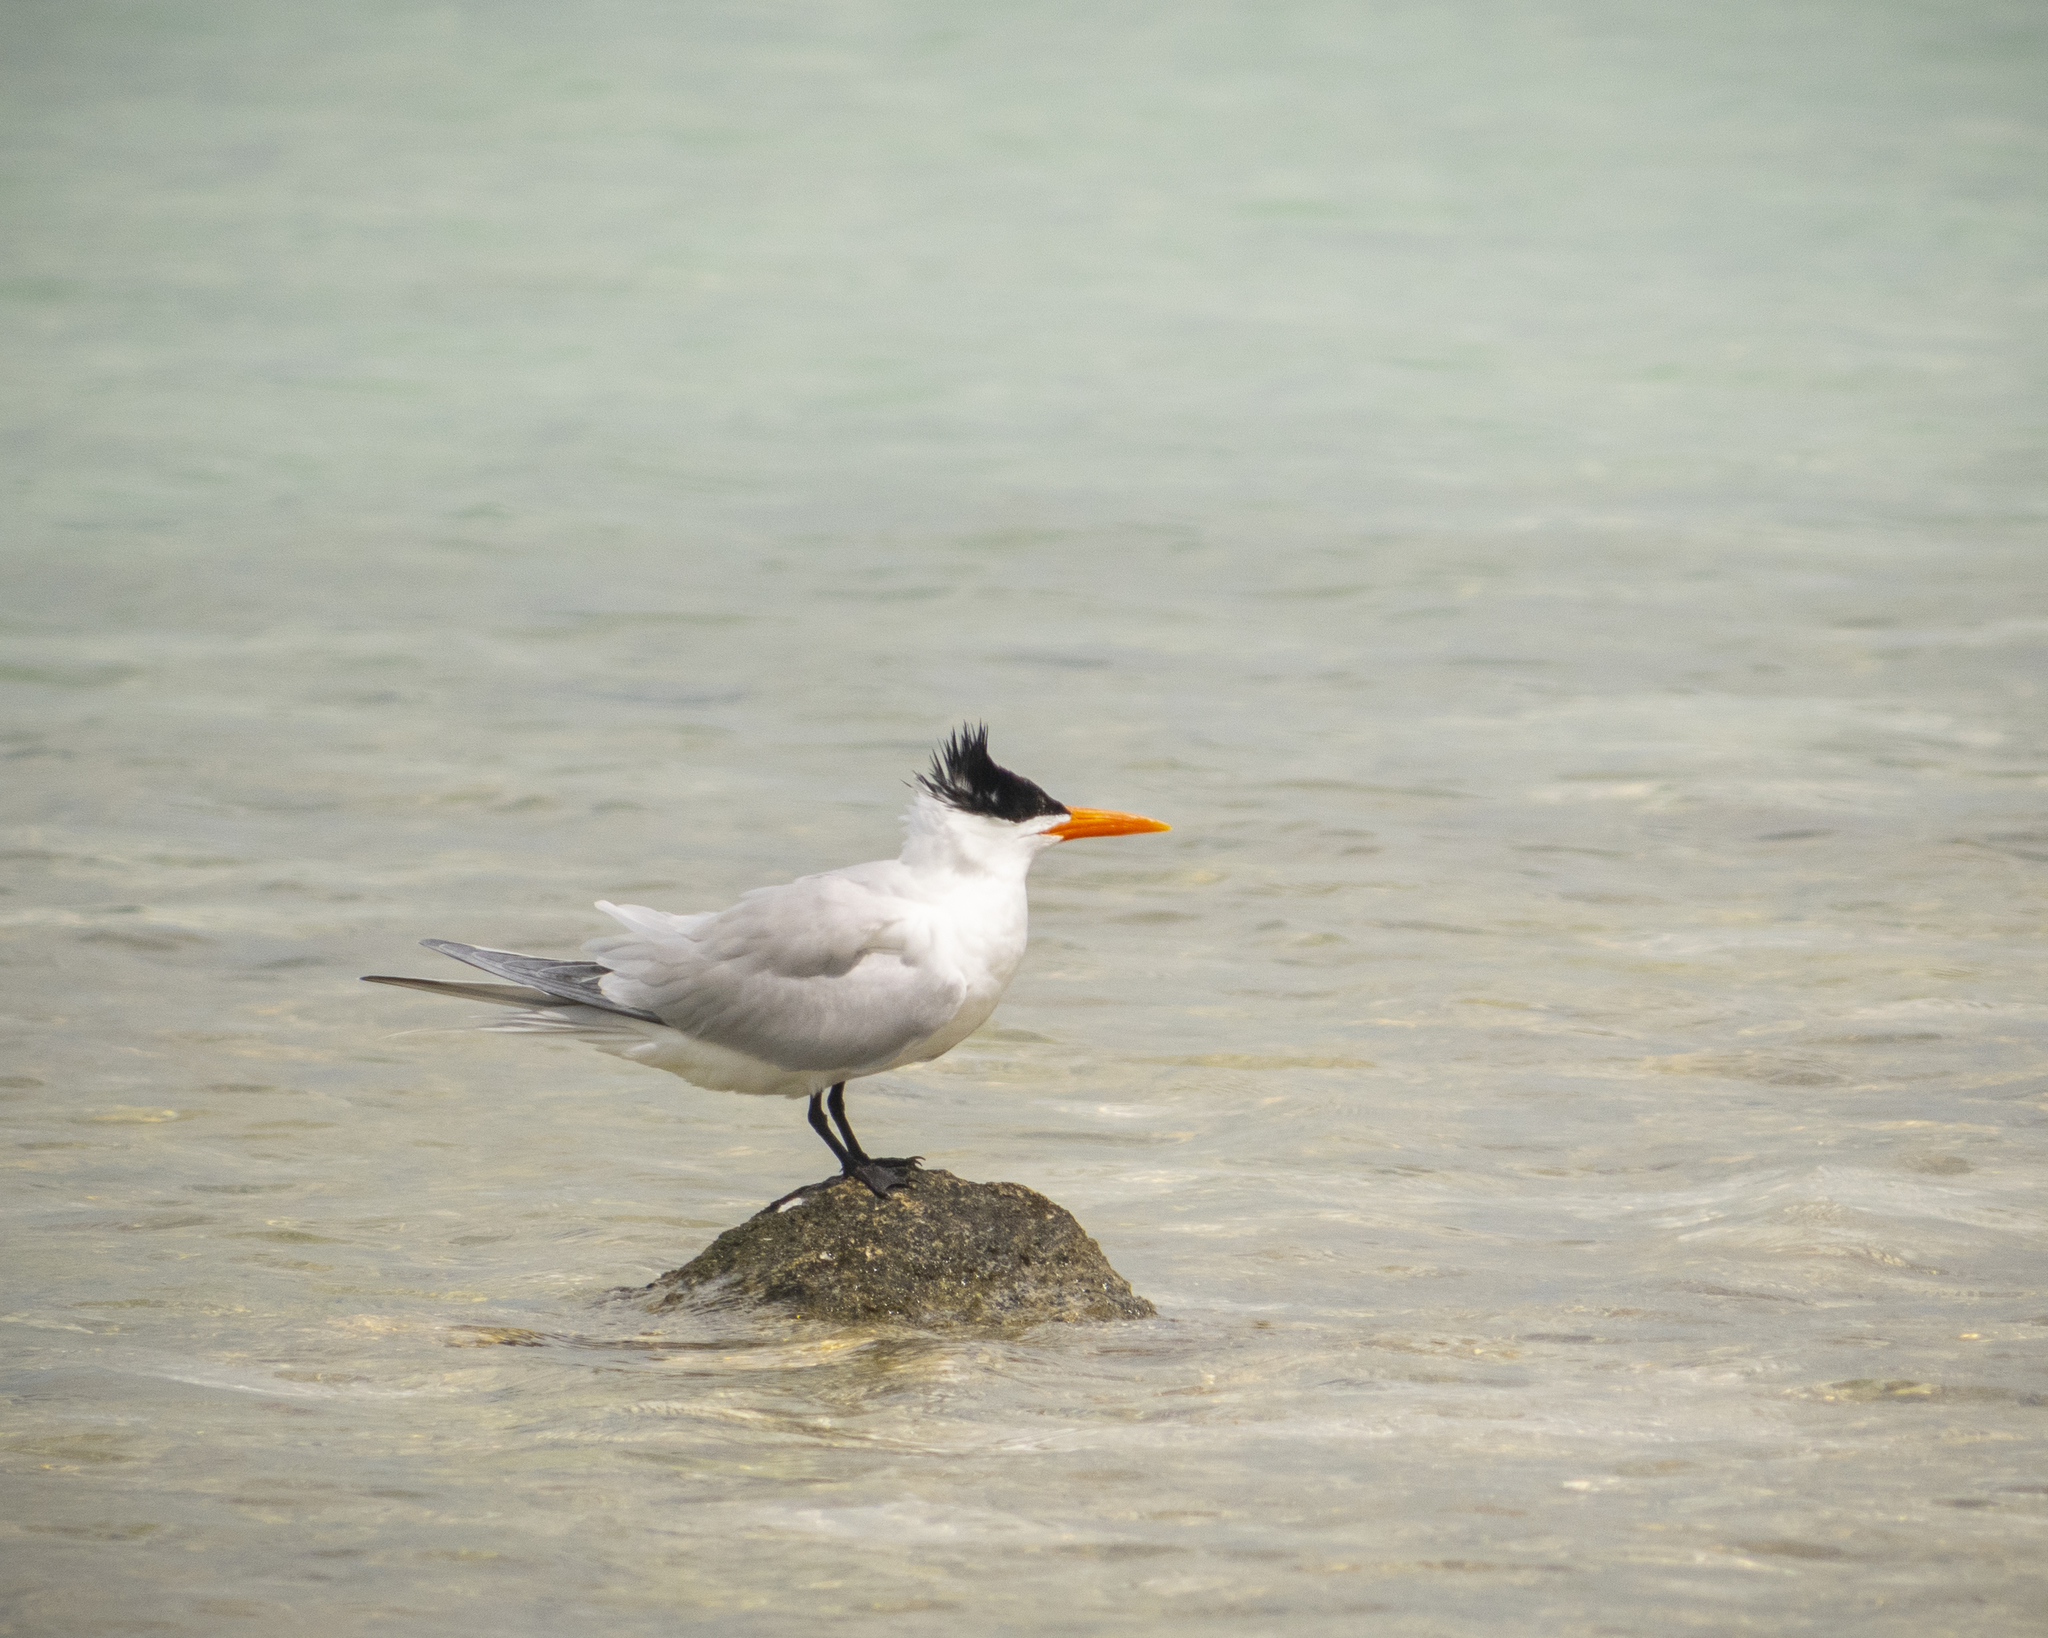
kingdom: Animalia
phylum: Chordata
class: Aves
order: Charadriiformes
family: Laridae
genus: Thalasseus
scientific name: Thalasseus maximus
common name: Royal tern
